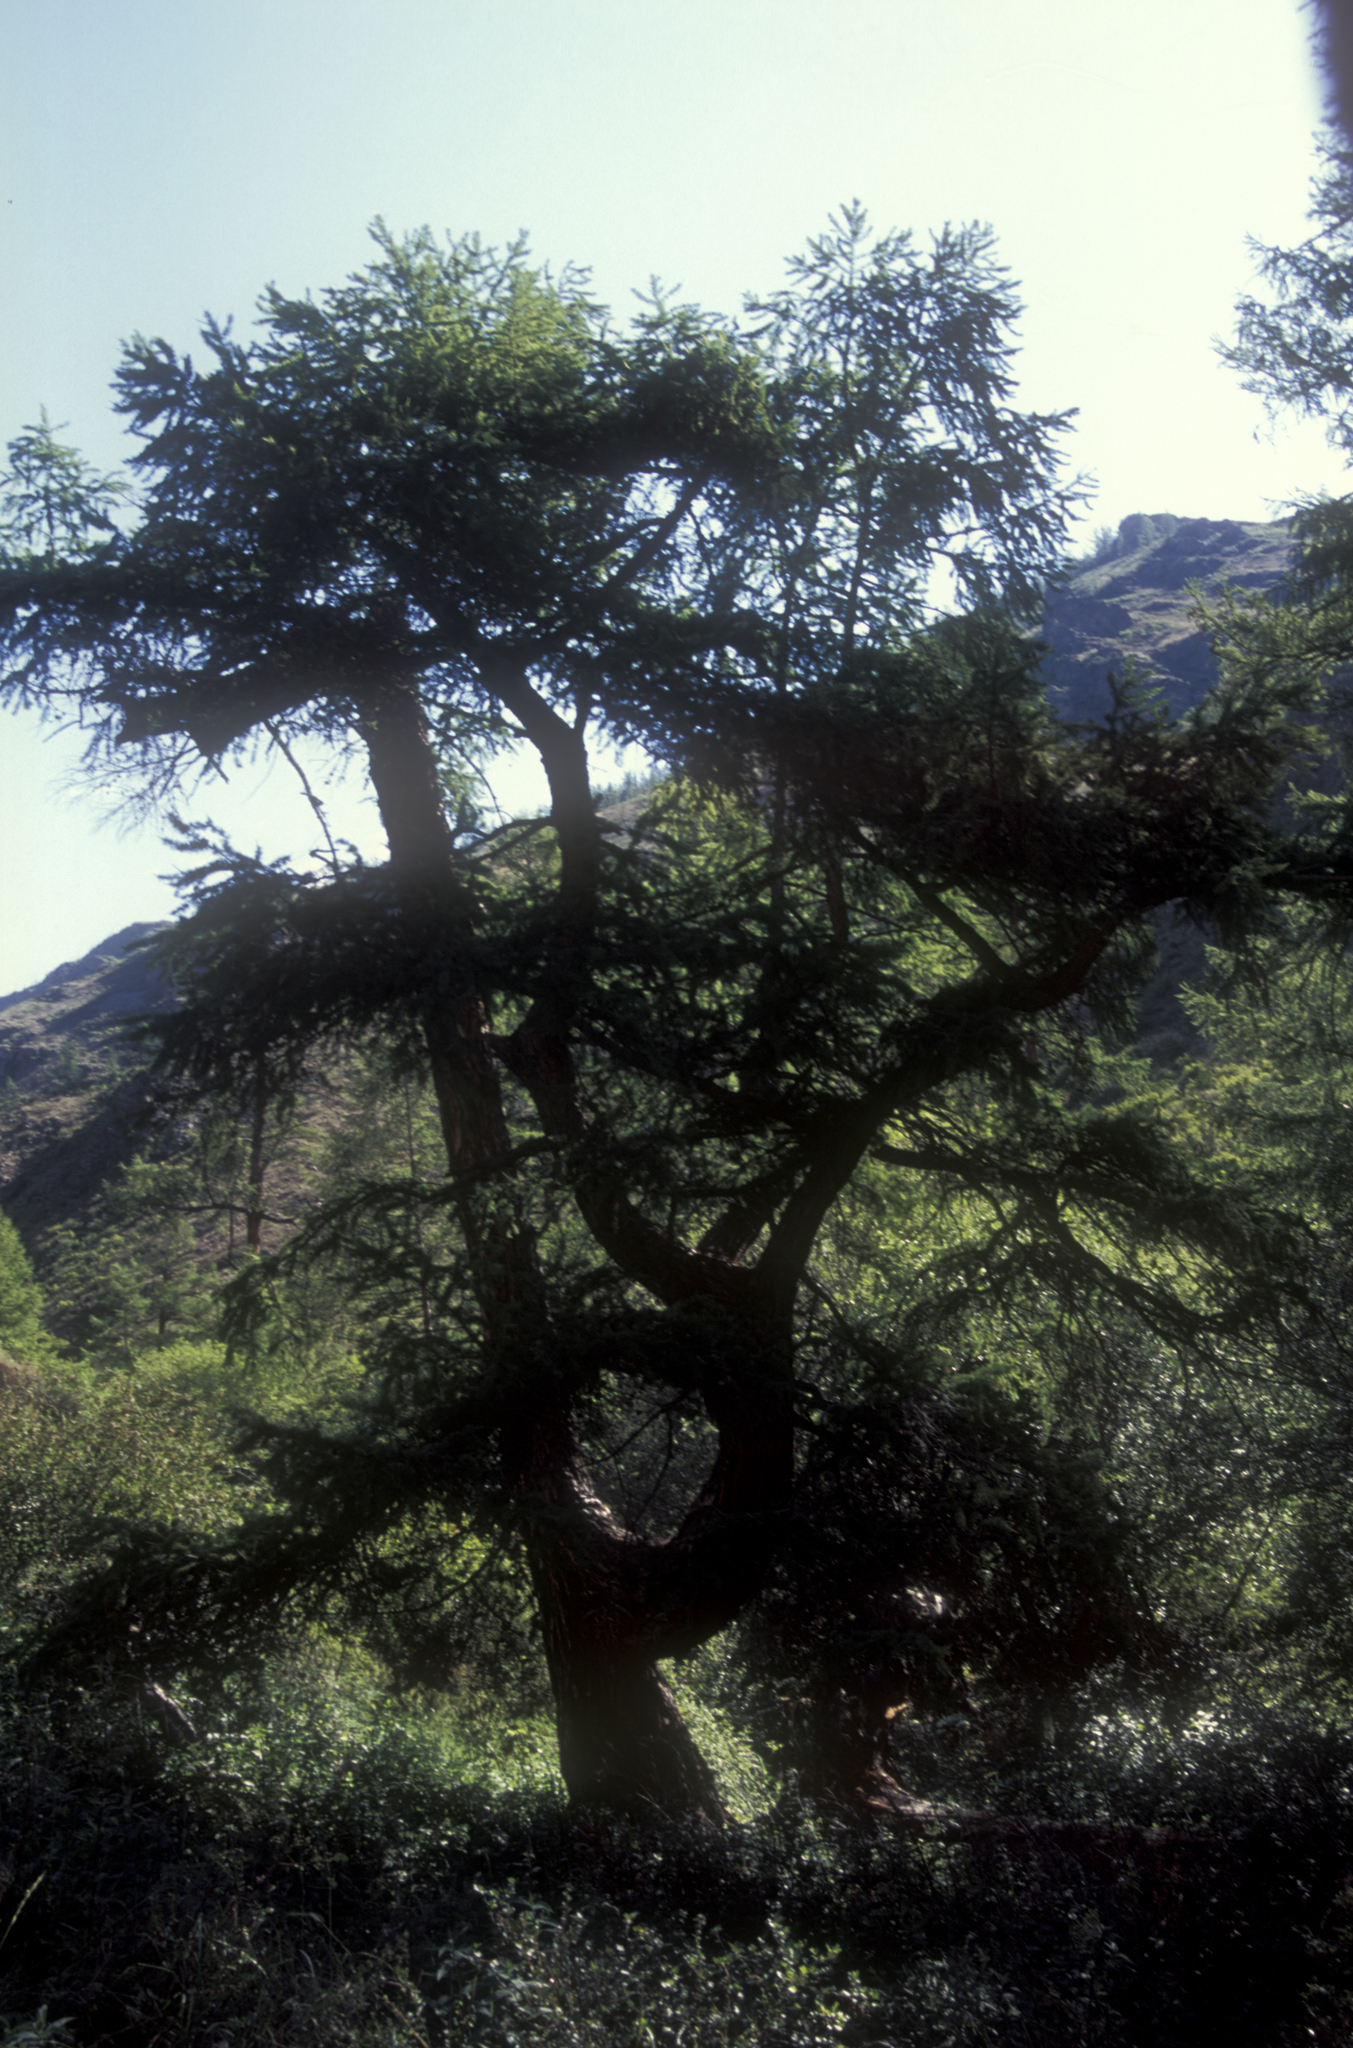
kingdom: Plantae
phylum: Tracheophyta
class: Pinopsida
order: Pinales
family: Pinaceae
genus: Larix
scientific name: Larix sibirica
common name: Siberian larch
